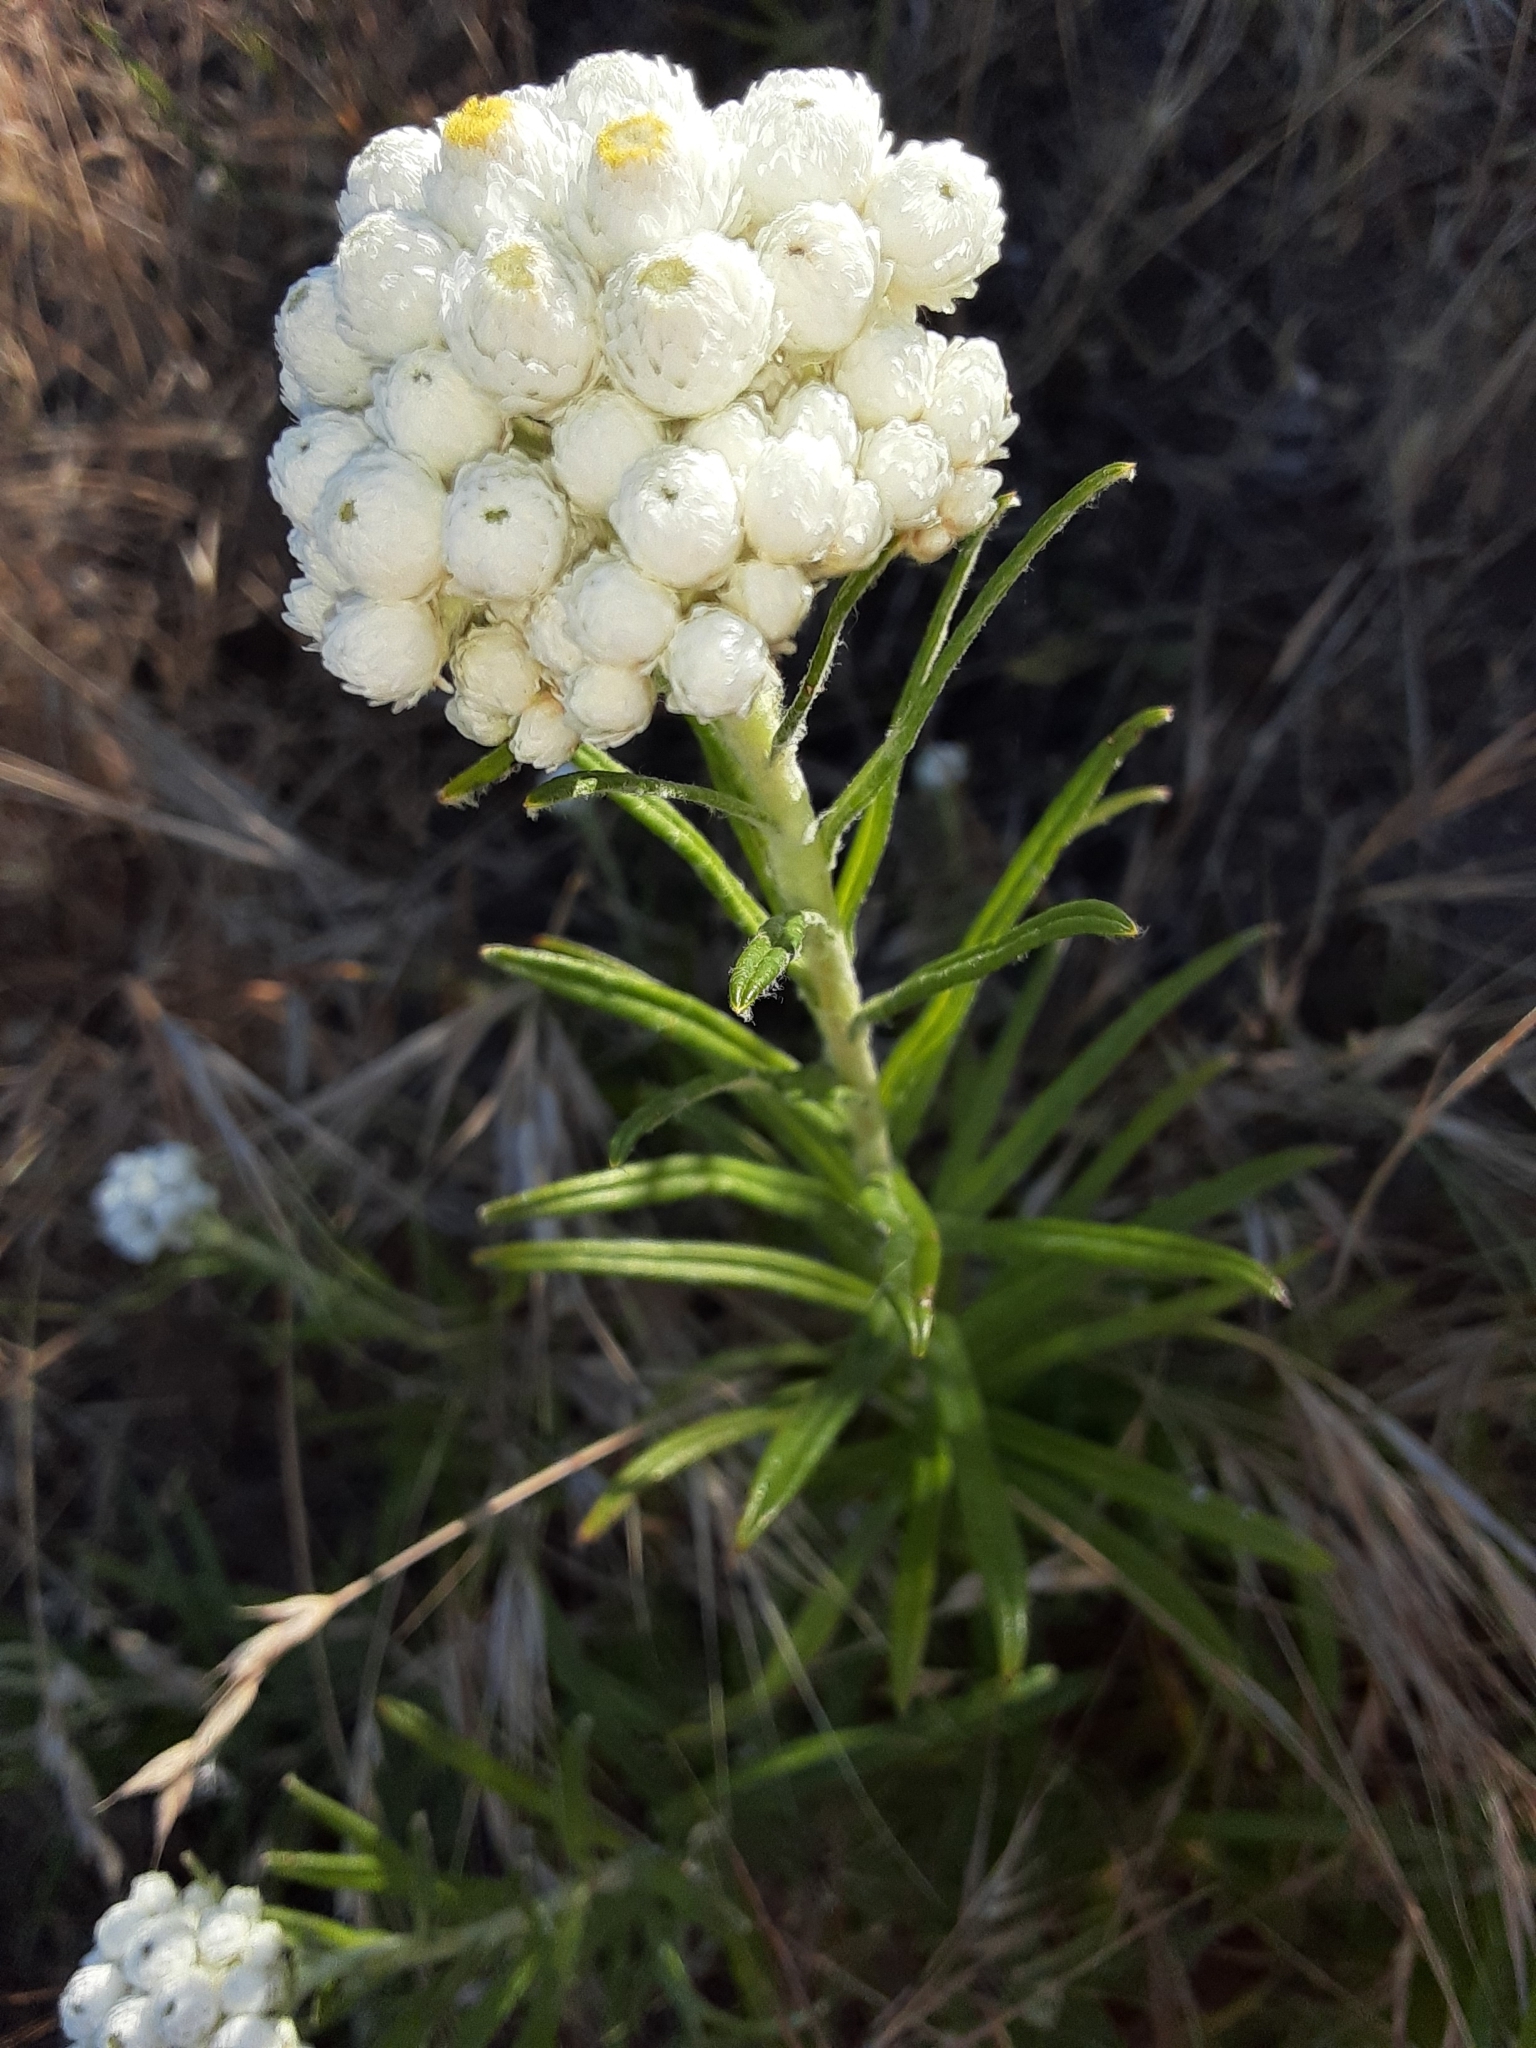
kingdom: Plantae
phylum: Tracheophyta
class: Magnoliopsida
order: Asterales
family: Asteraceae
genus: Anaphalis
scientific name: Anaphalis margaritacea
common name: Pearly everlasting
